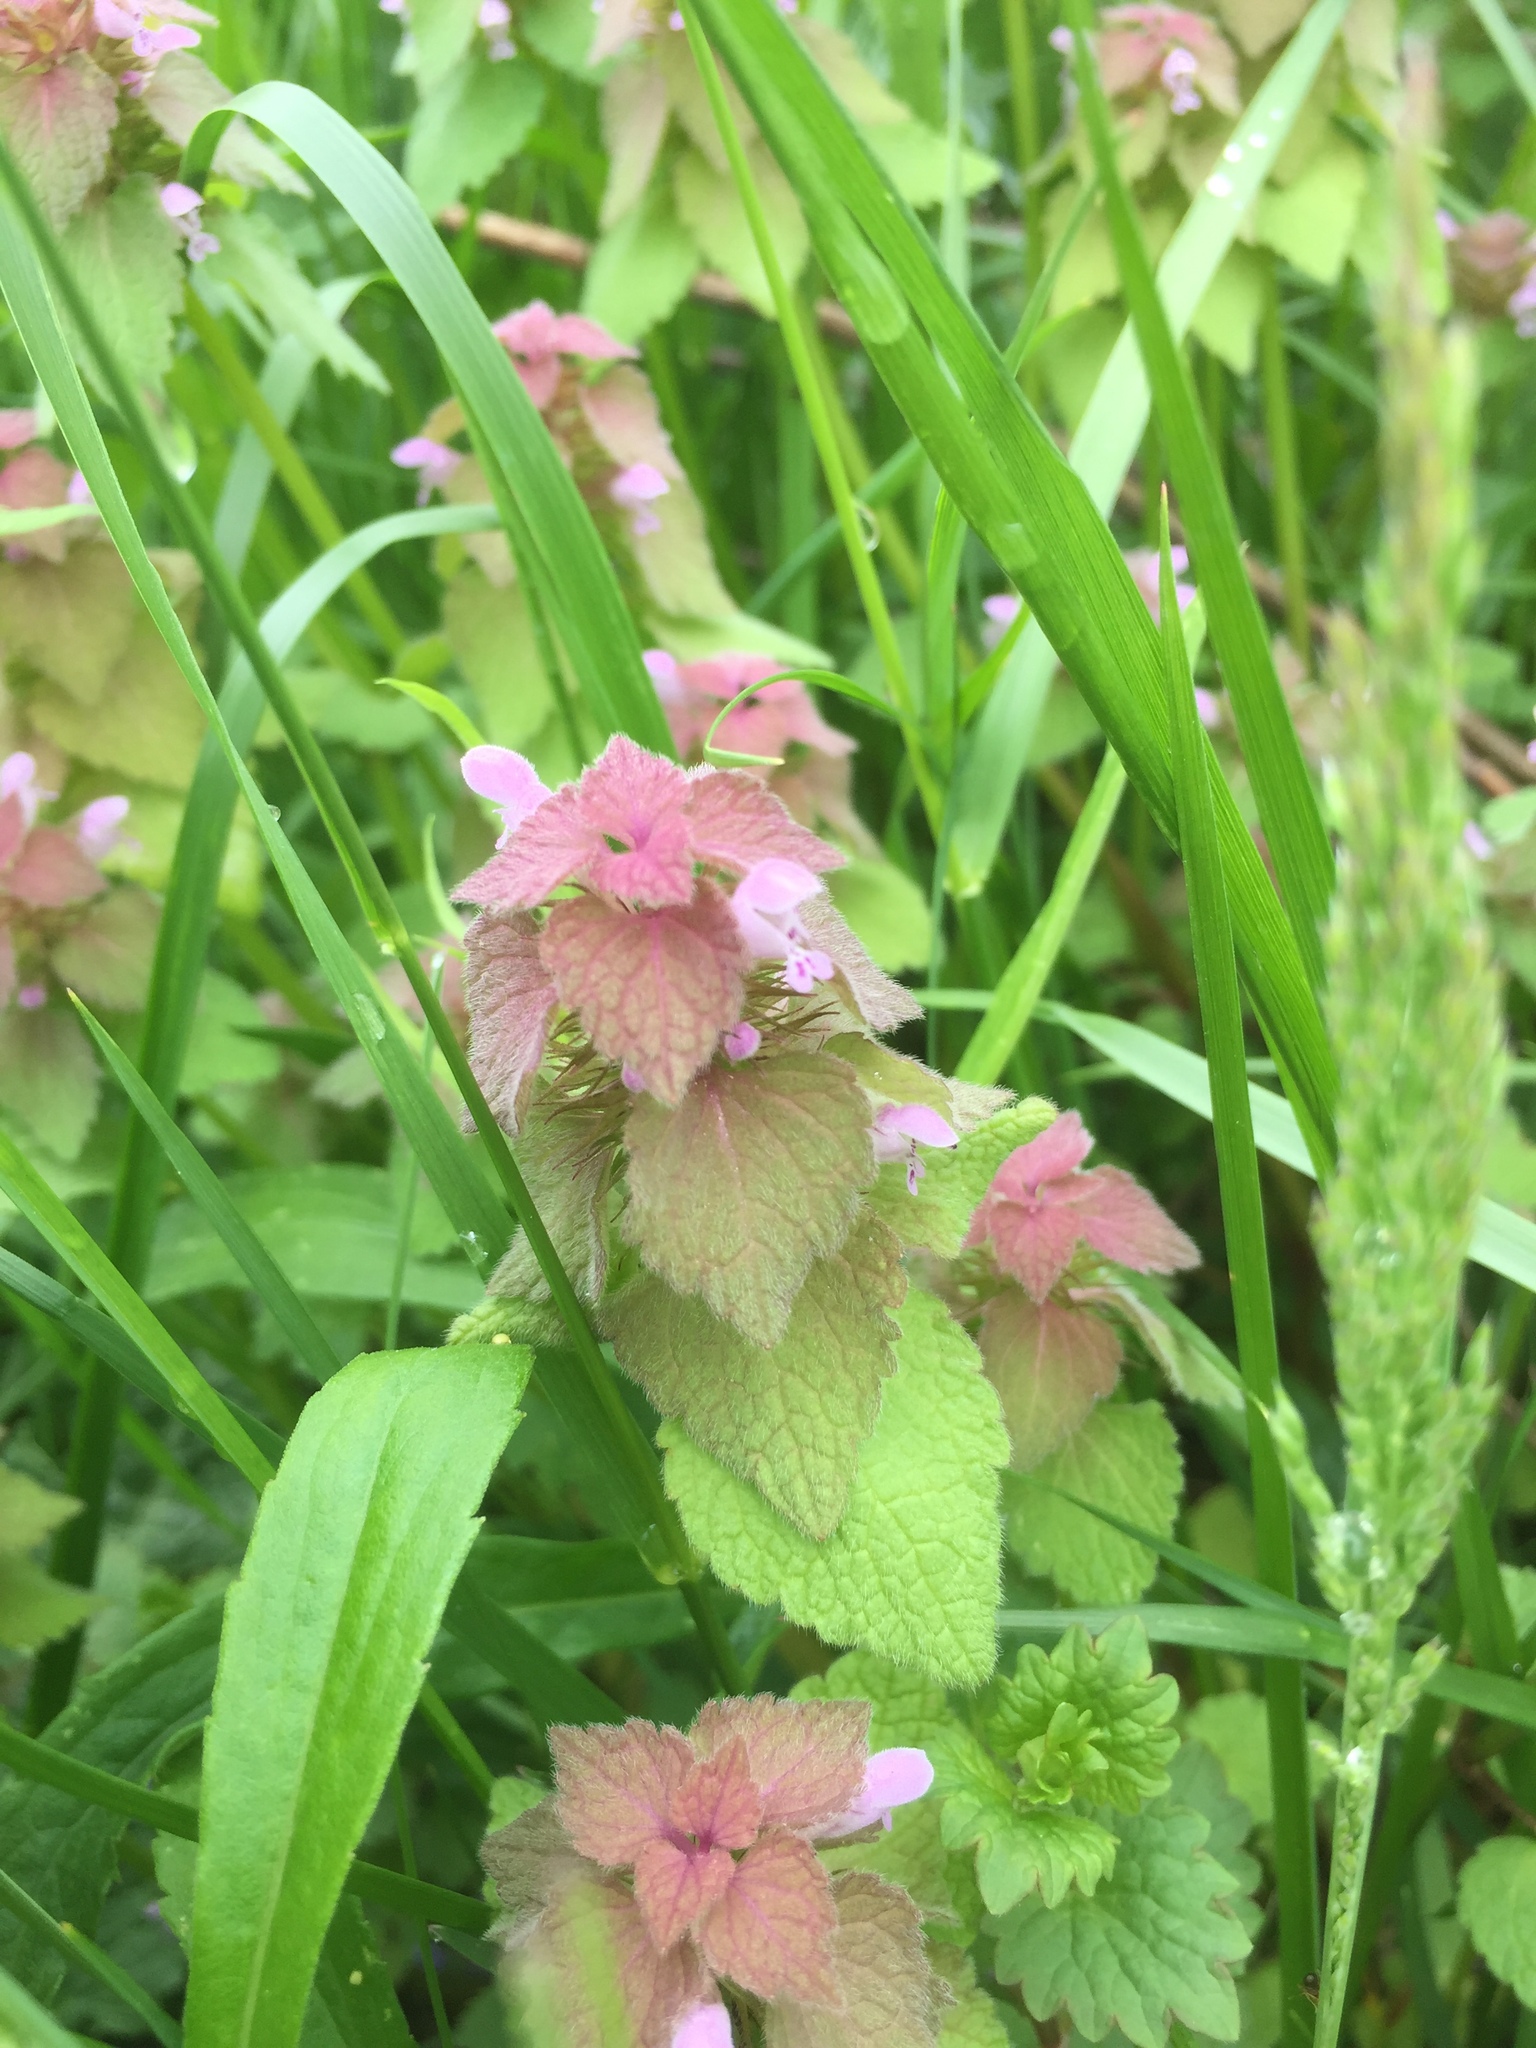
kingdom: Plantae
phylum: Tracheophyta
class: Magnoliopsida
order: Lamiales
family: Lamiaceae
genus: Lamium
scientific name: Lamium purpureum
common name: Red dead-nettle
